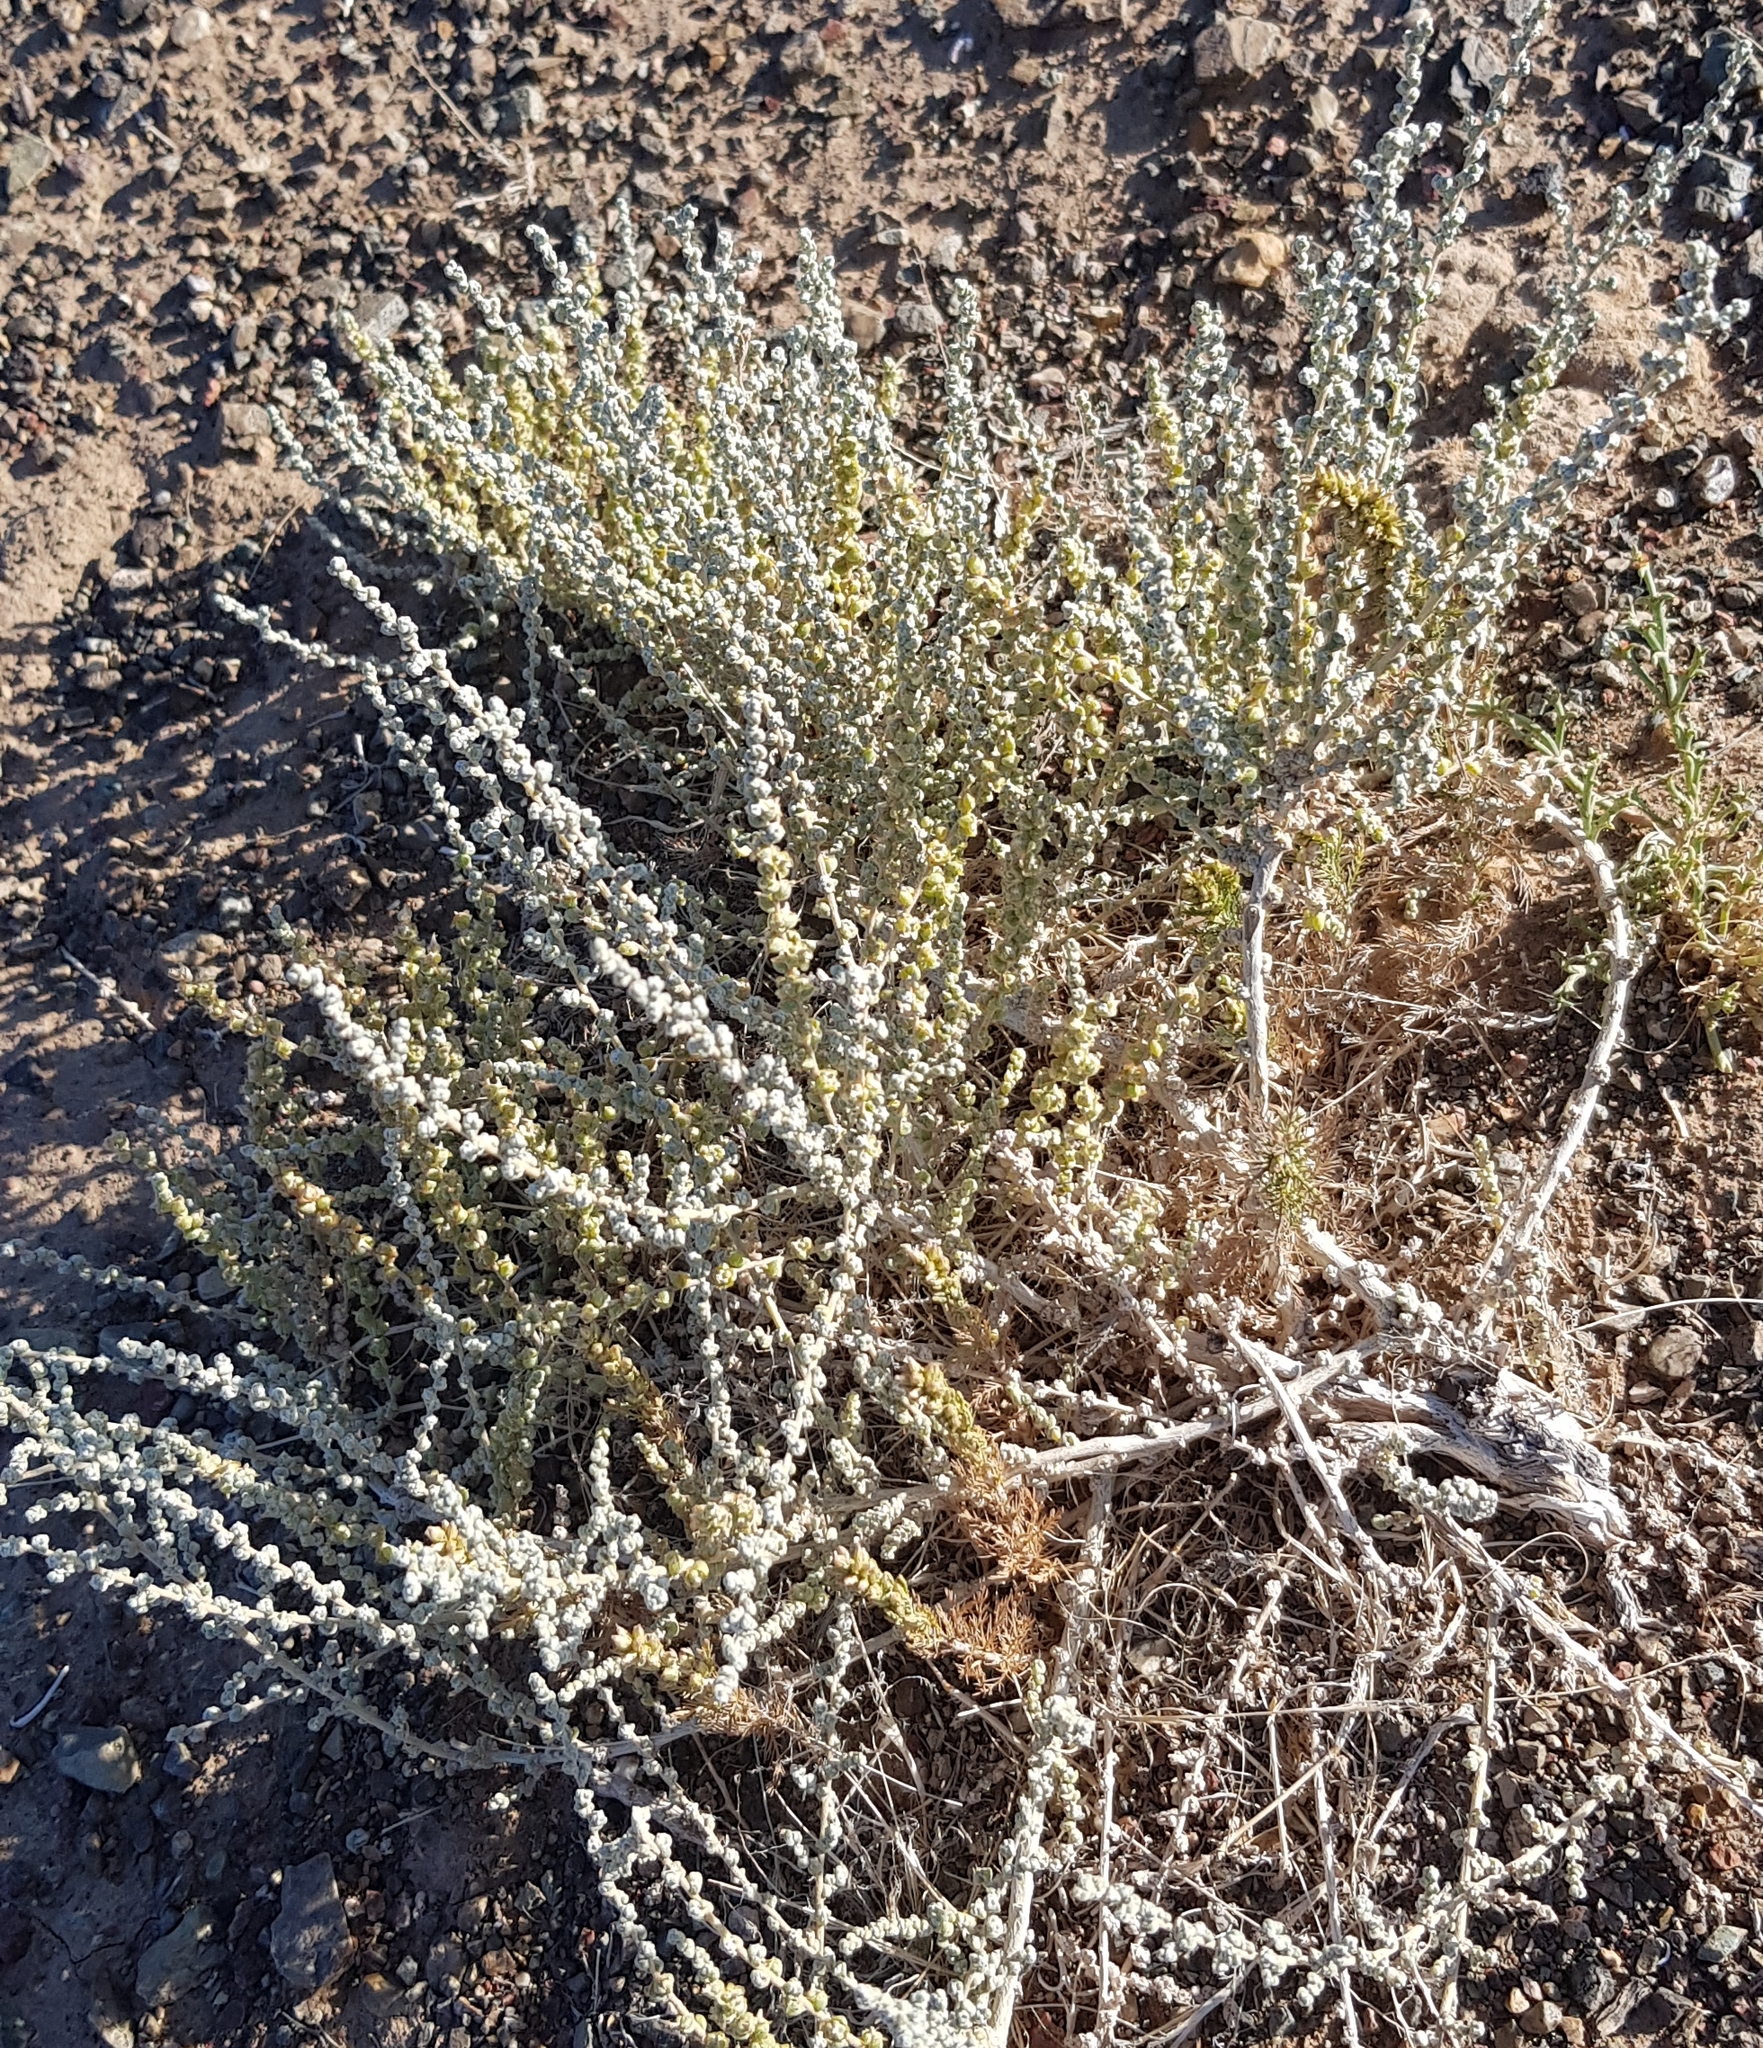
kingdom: Plantae
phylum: Tracheophyta
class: Magnoliopsida
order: Caryophyllales
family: Amaranthaceae
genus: Caroxylon
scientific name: Caroxylon passerinum
